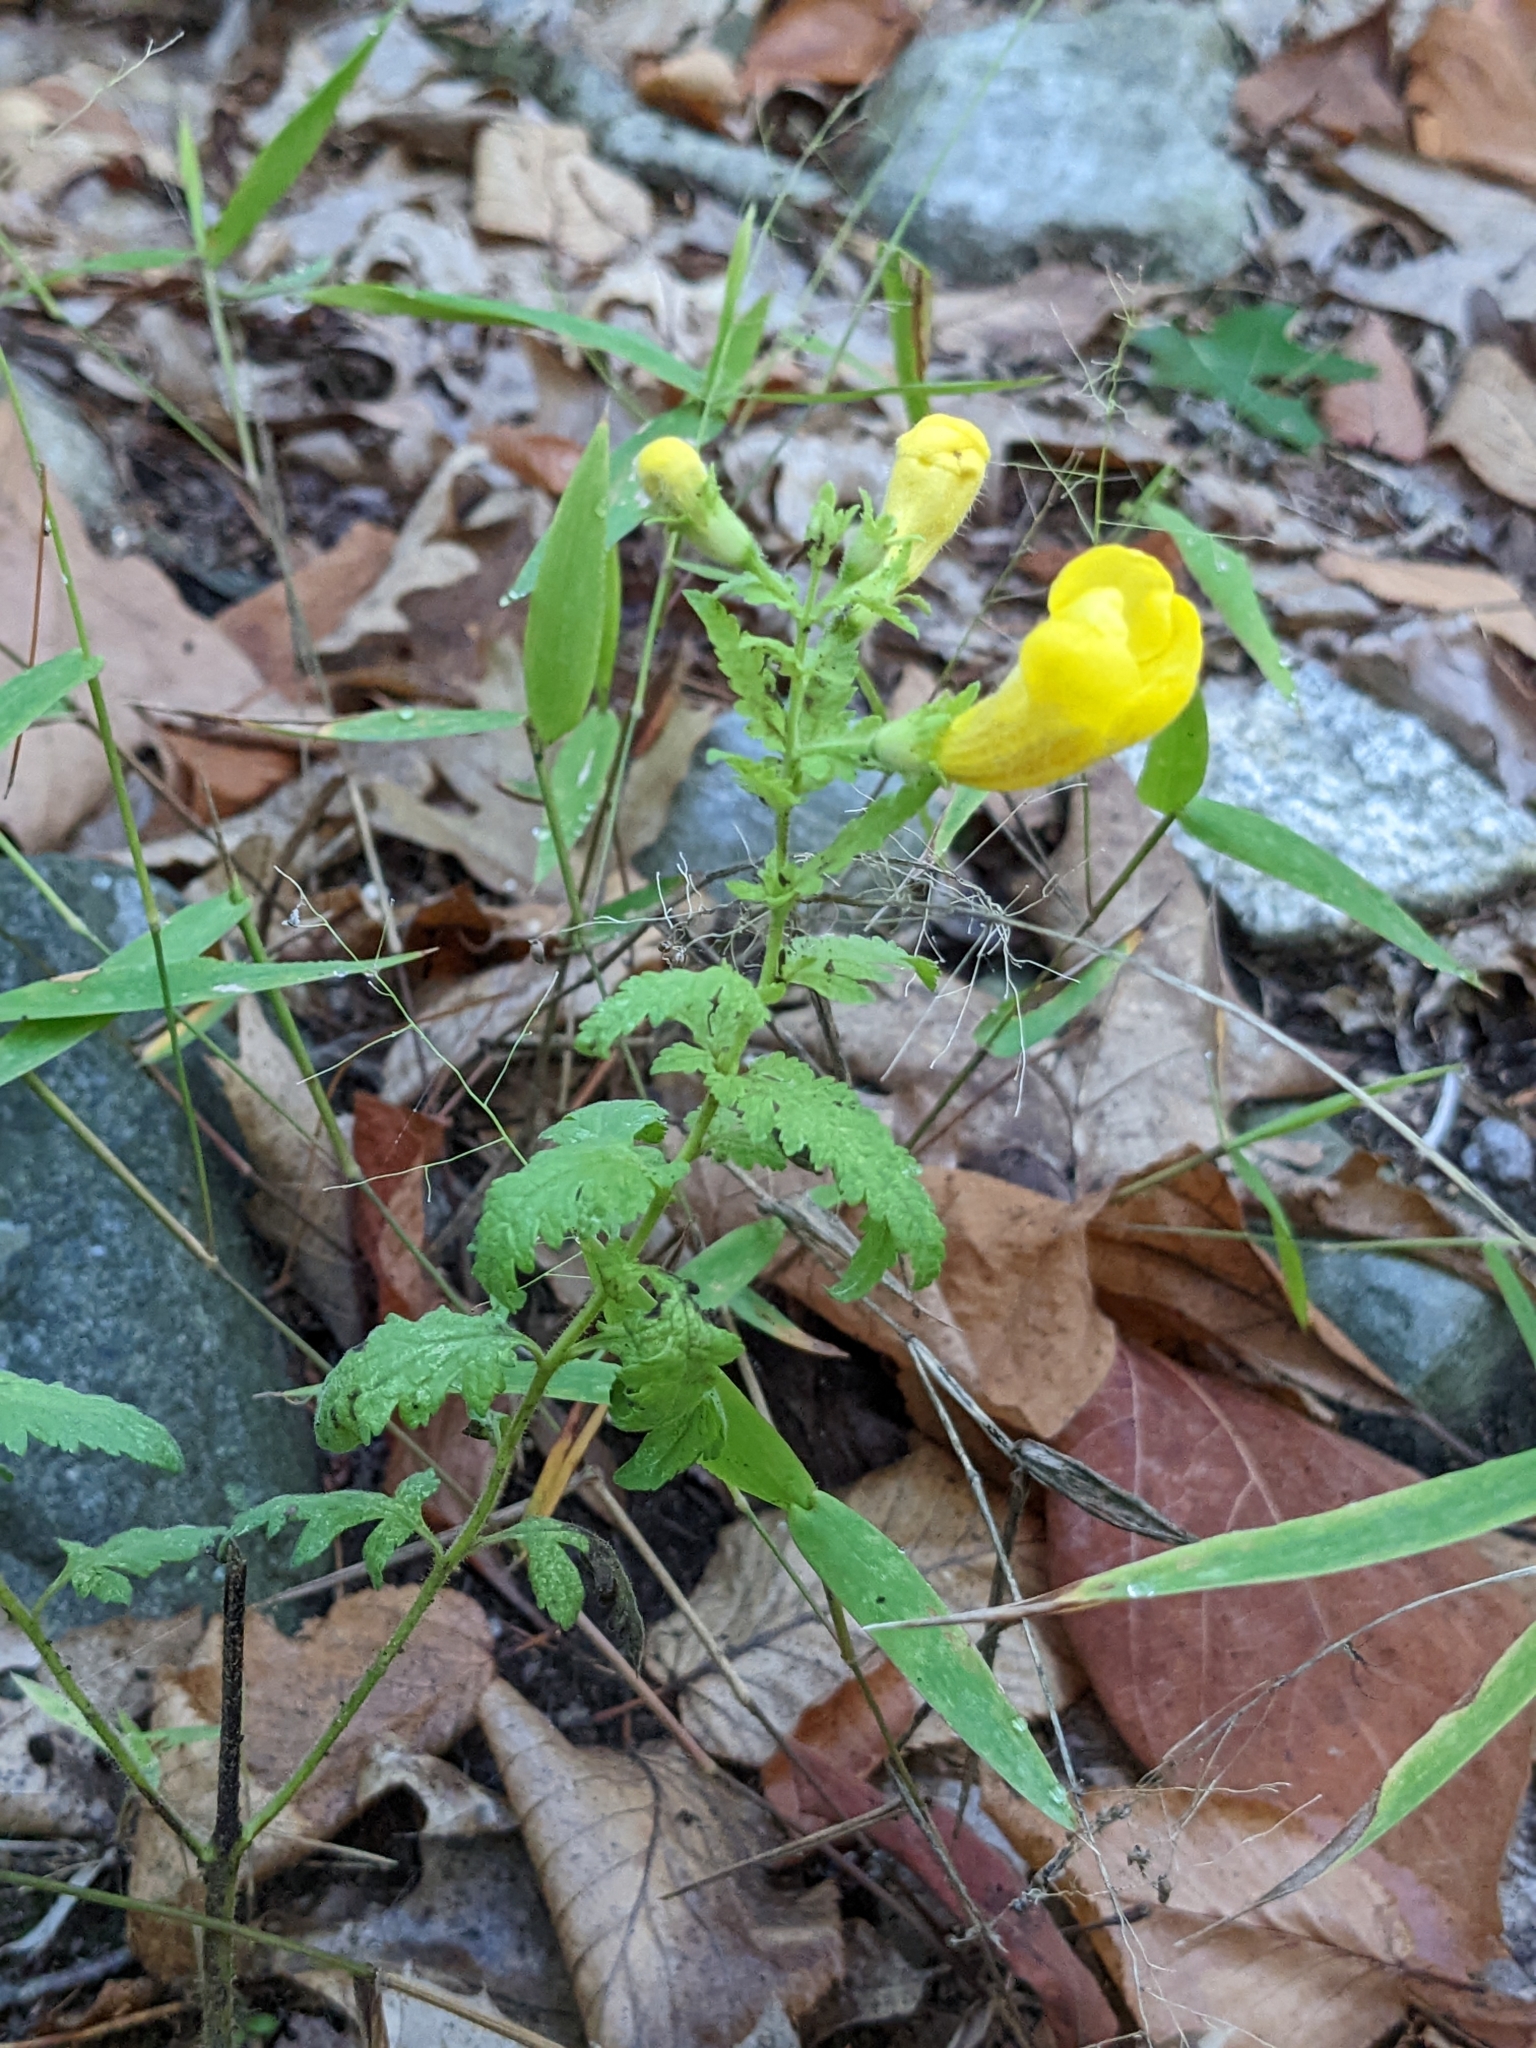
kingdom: Plantae
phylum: Tracheophyta
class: Magnoliopsida
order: Lamiales
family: Orobanchaceae
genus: Aureolaria
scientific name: Aureolaria pedicularia
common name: Annual false foxglove
